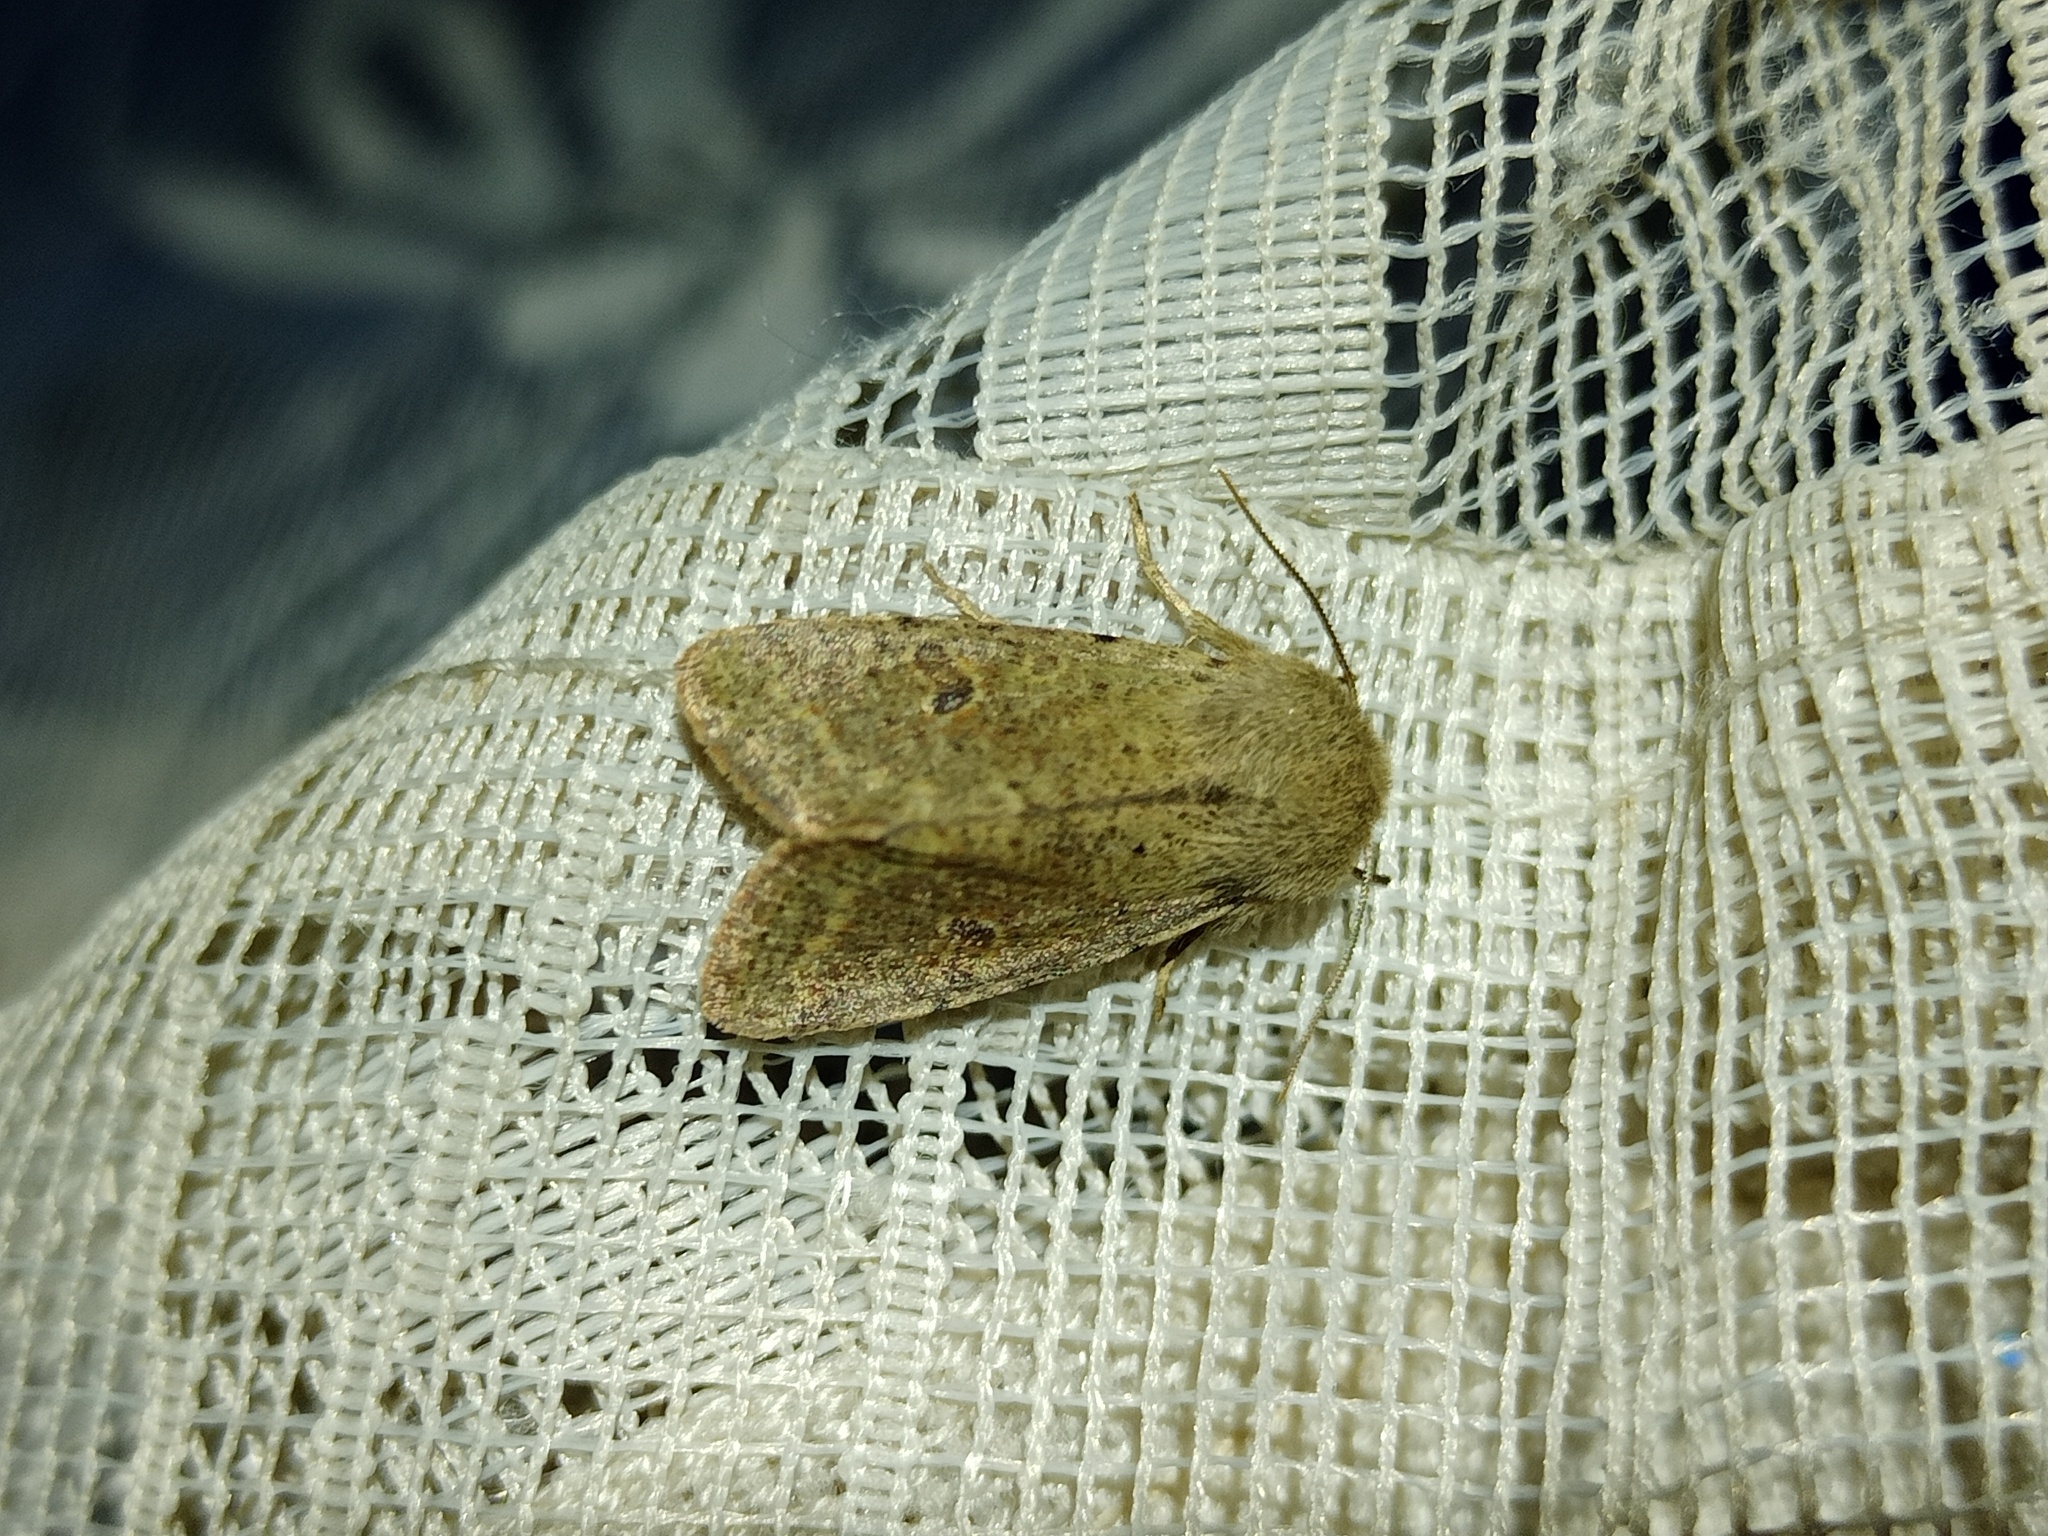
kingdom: Animalia
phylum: Arthropoda
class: Insecta
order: Lepidoptera
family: Noctuidae
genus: Orthosia
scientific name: Orthosia cruda
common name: Small quaker
